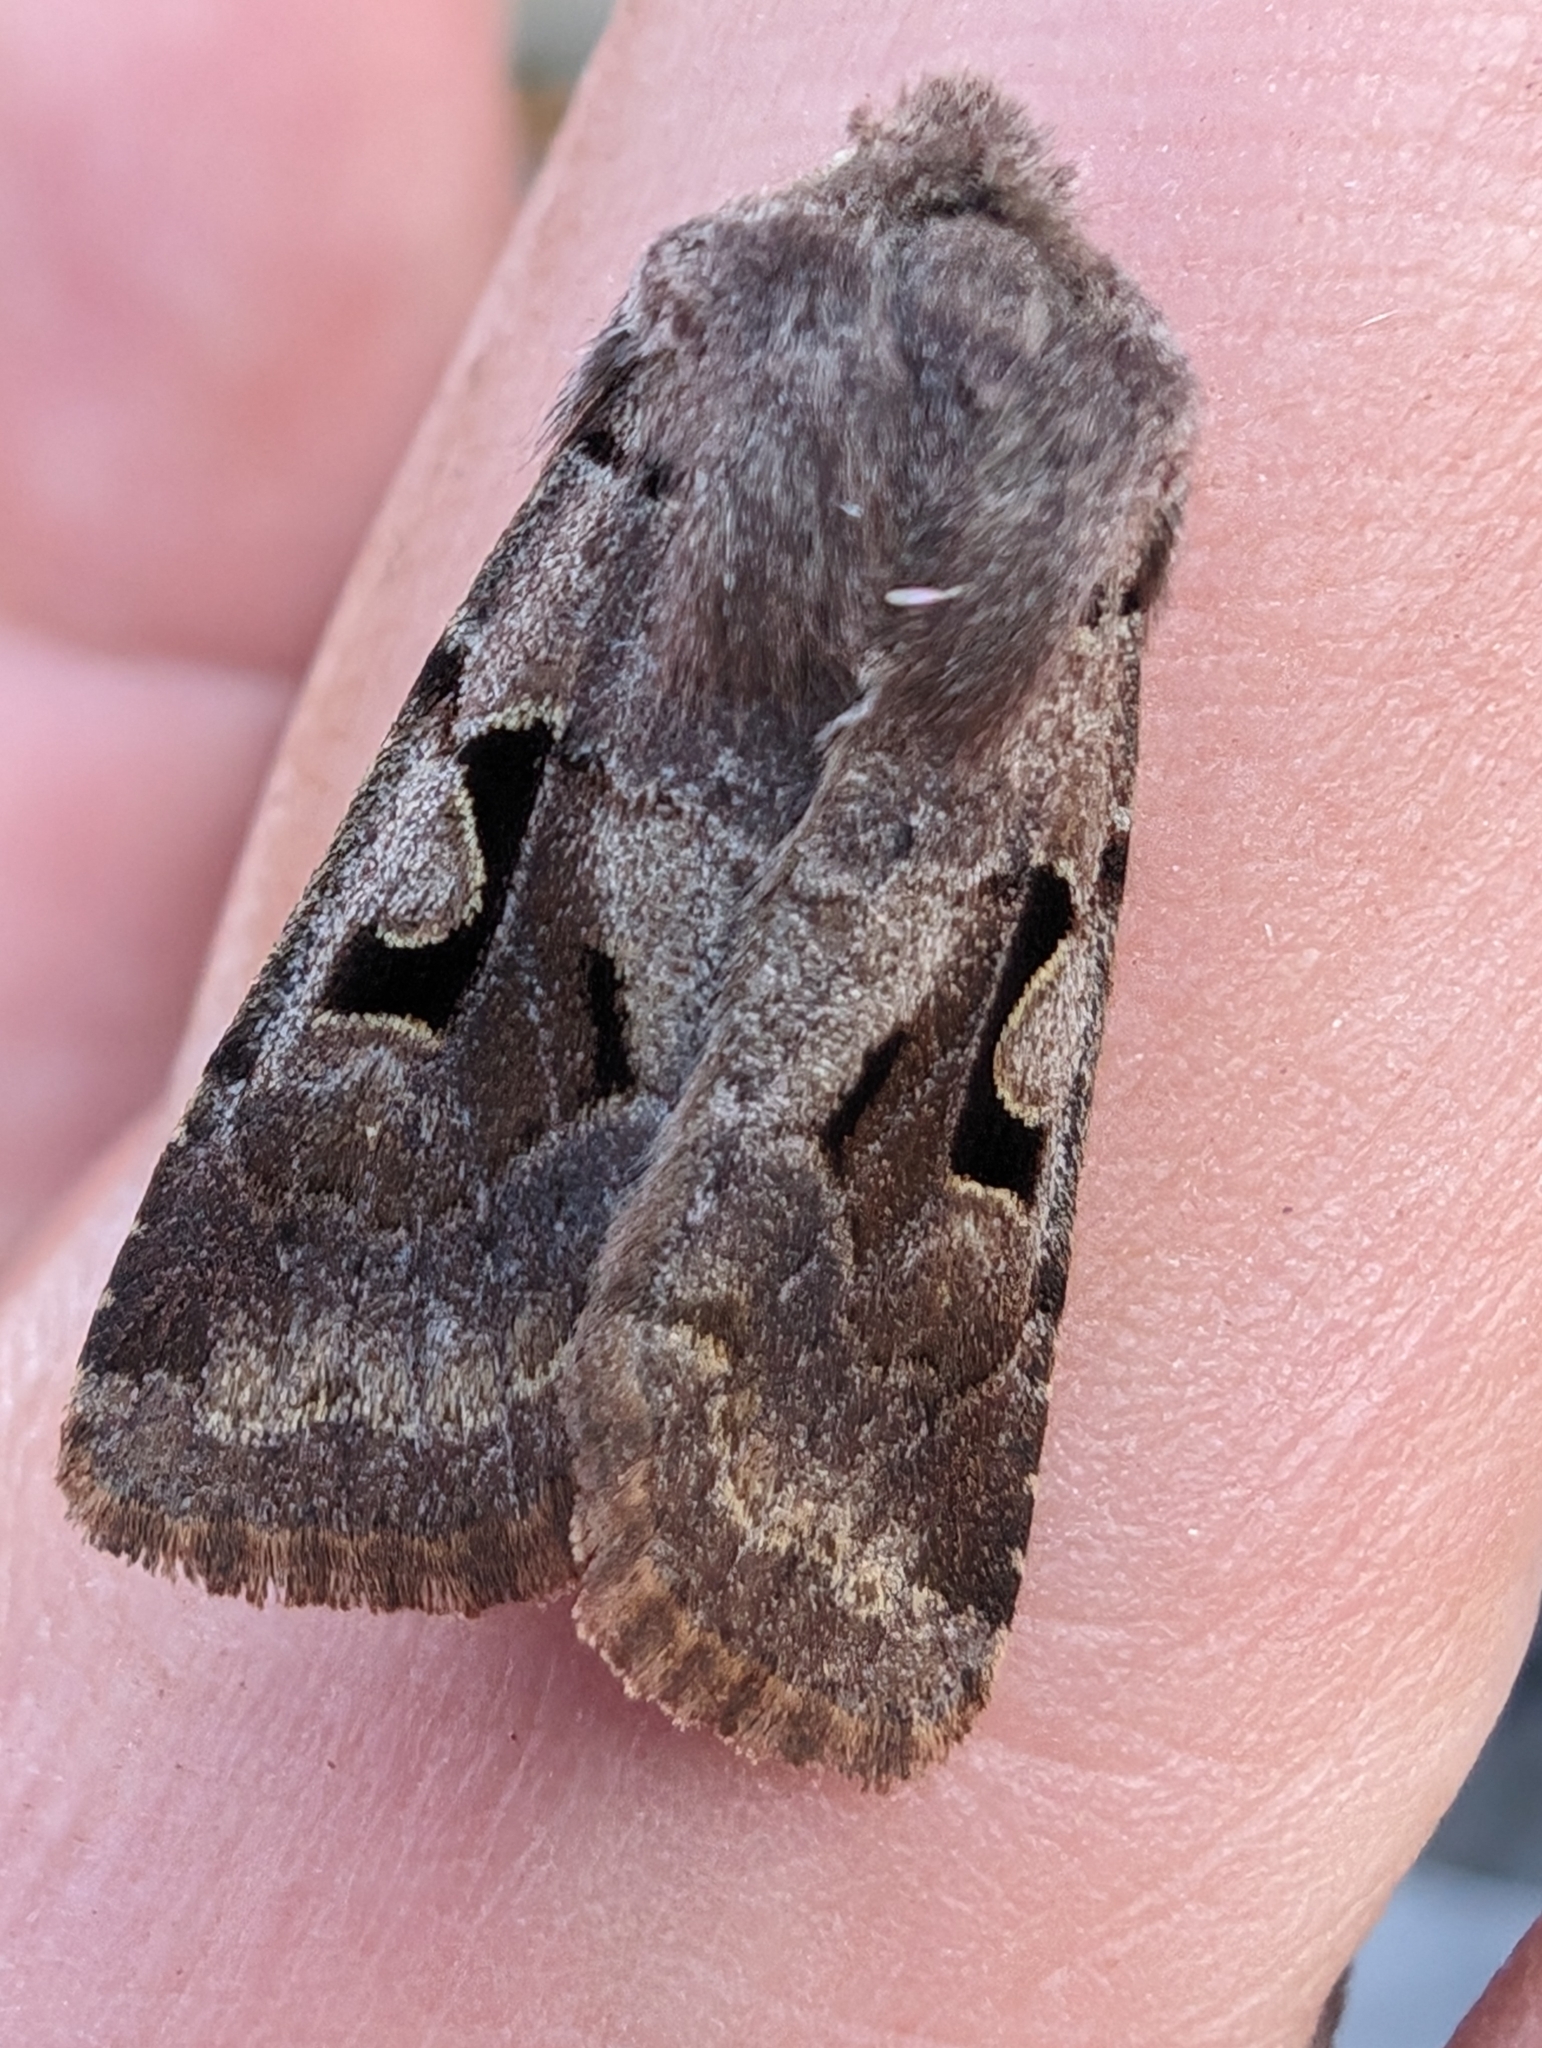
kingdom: Animalia
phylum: Arthropoda
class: Insecta
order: Lepidoptera
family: Noctuidae
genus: Orthosia
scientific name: Orthosia gothica
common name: Hebrew character
